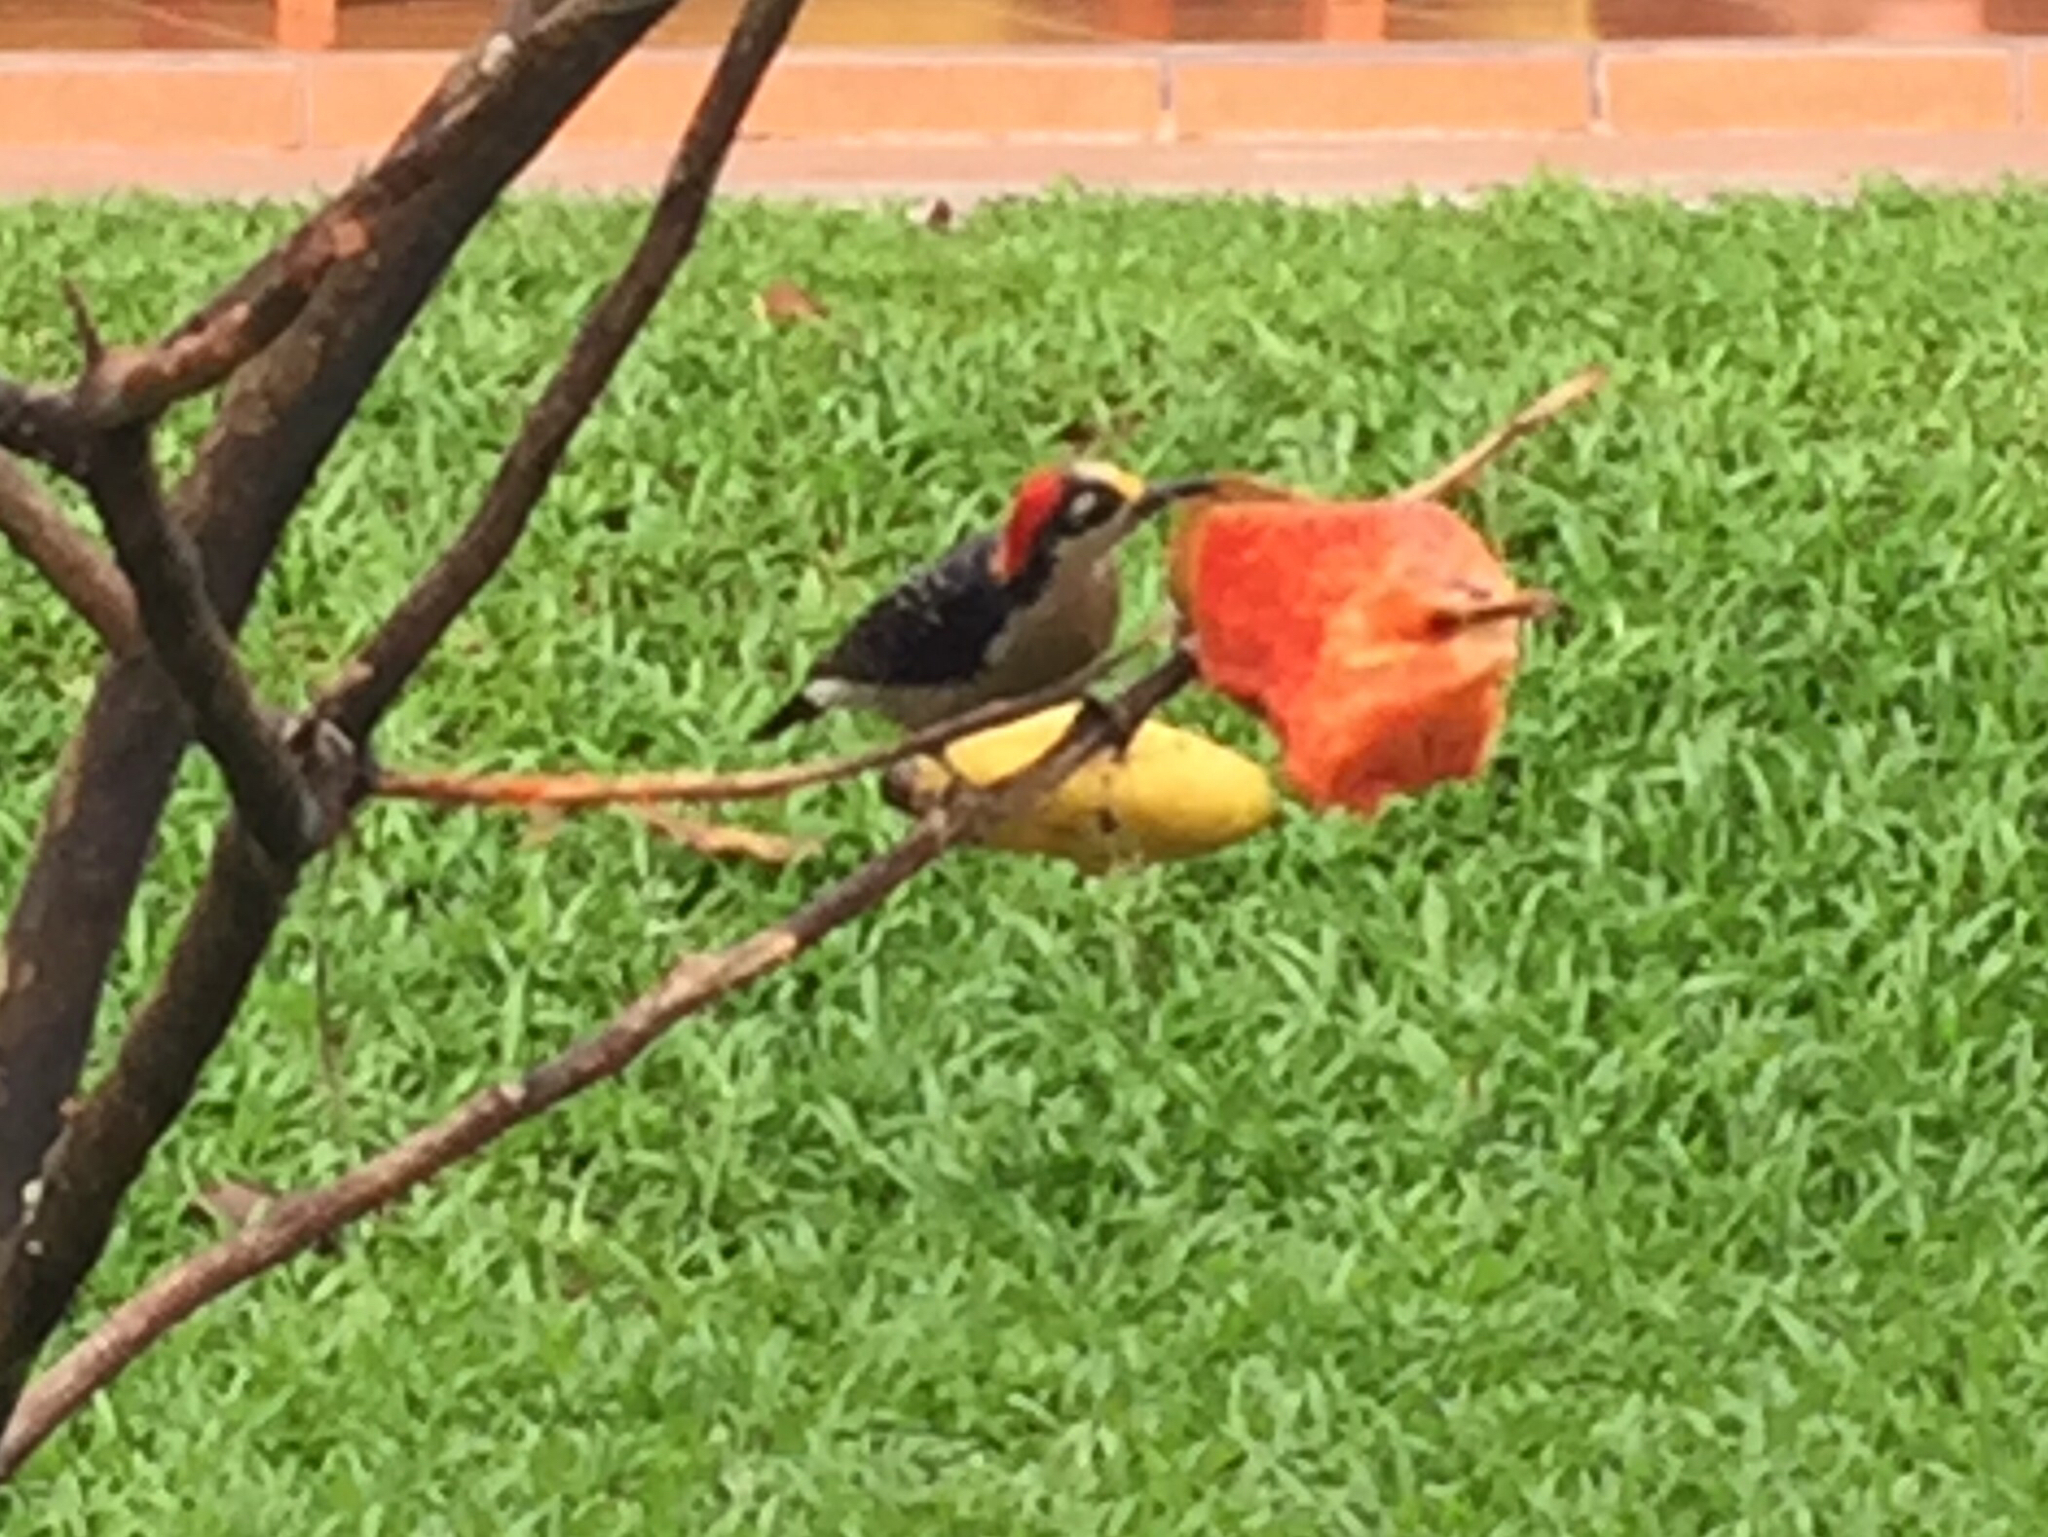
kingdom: Animalia
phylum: Chordata
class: Aves
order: Piciformes
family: Picidae
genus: Melanerpes
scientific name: Melanerpes pucherani
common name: Black-cheeked woodpecker
